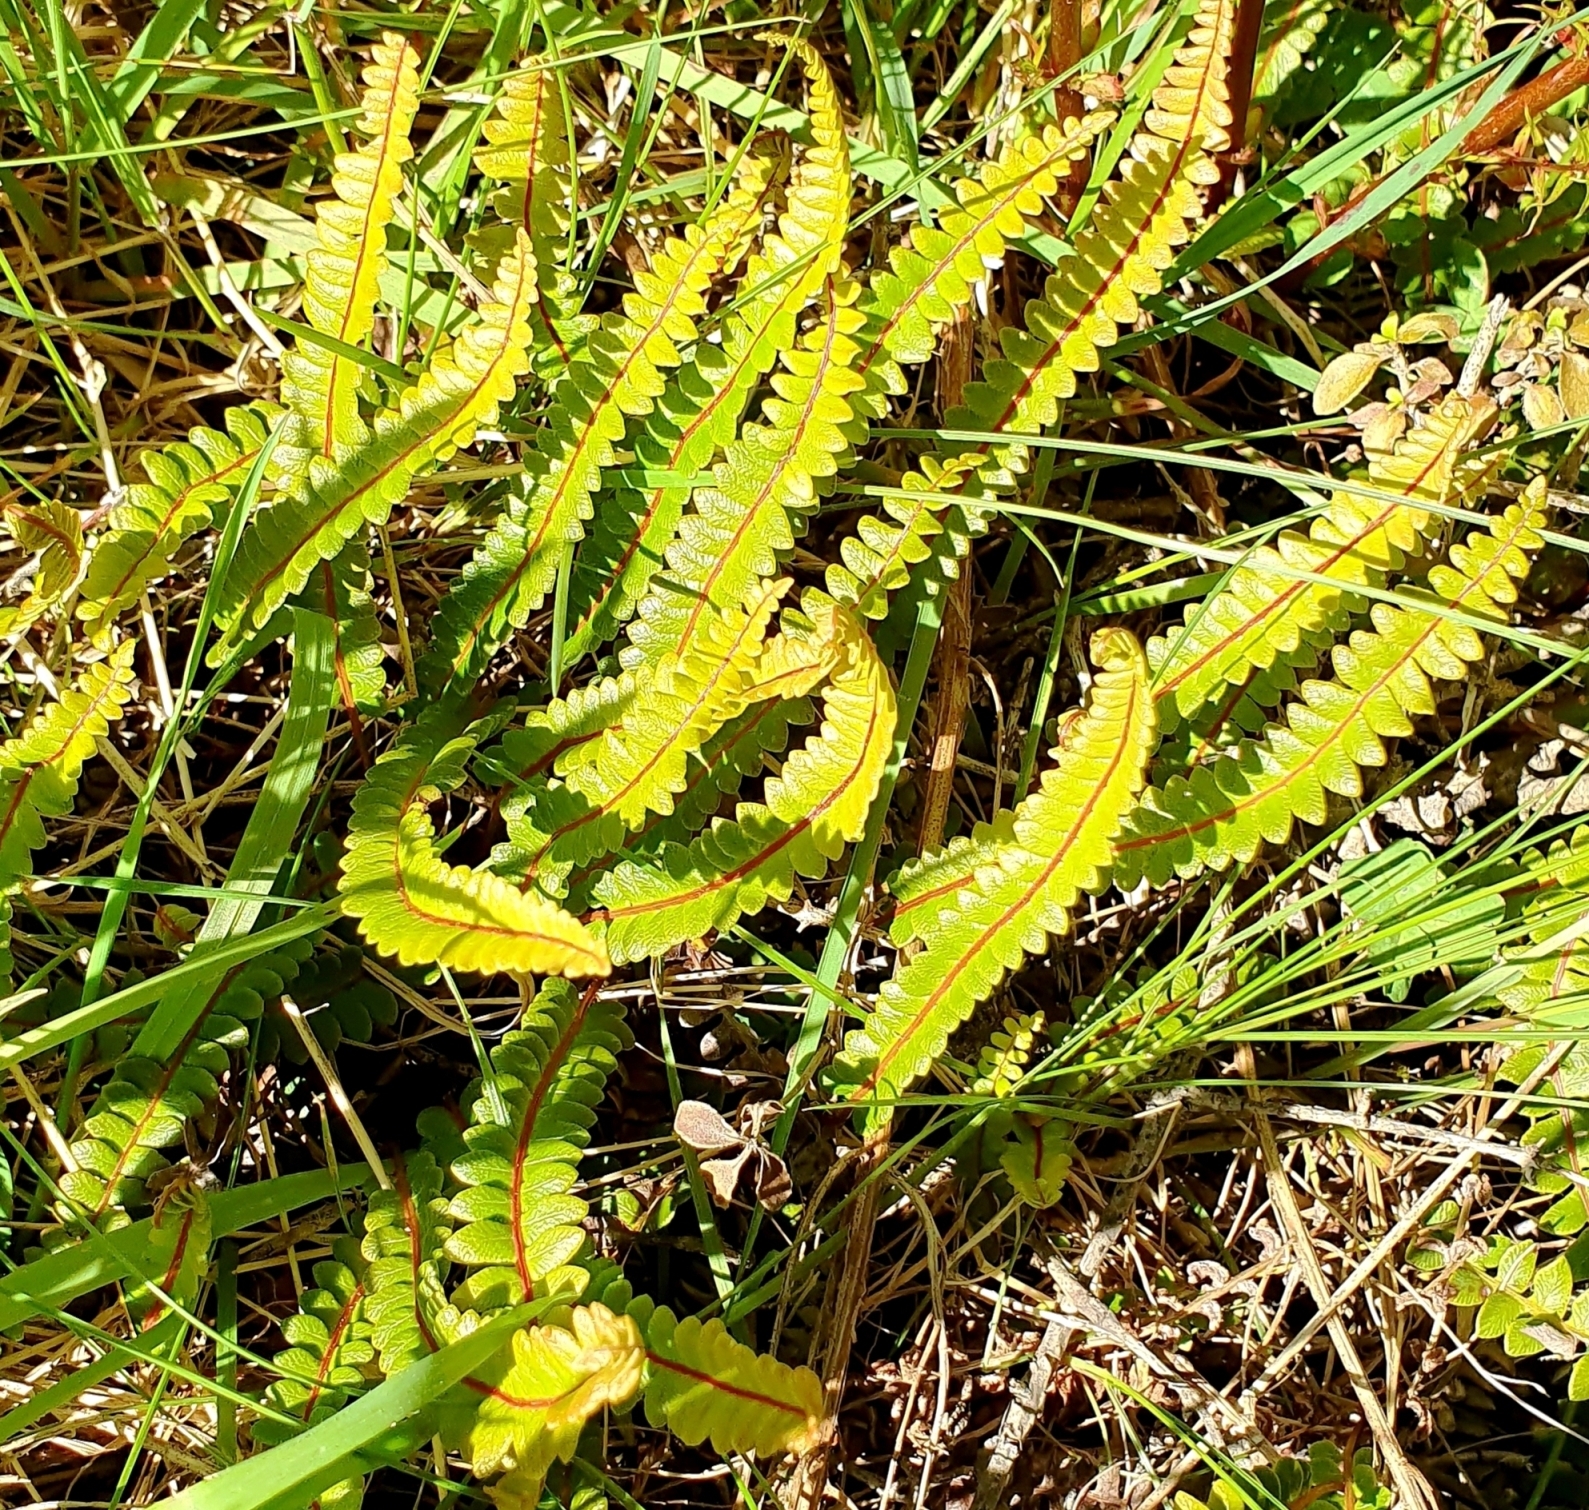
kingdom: Plantae
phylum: Tracheophyta
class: Polypodiopsida
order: Polypodiales
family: Blechnaceae
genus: Austroblechnum
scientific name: Austroblechnum penna-marina
